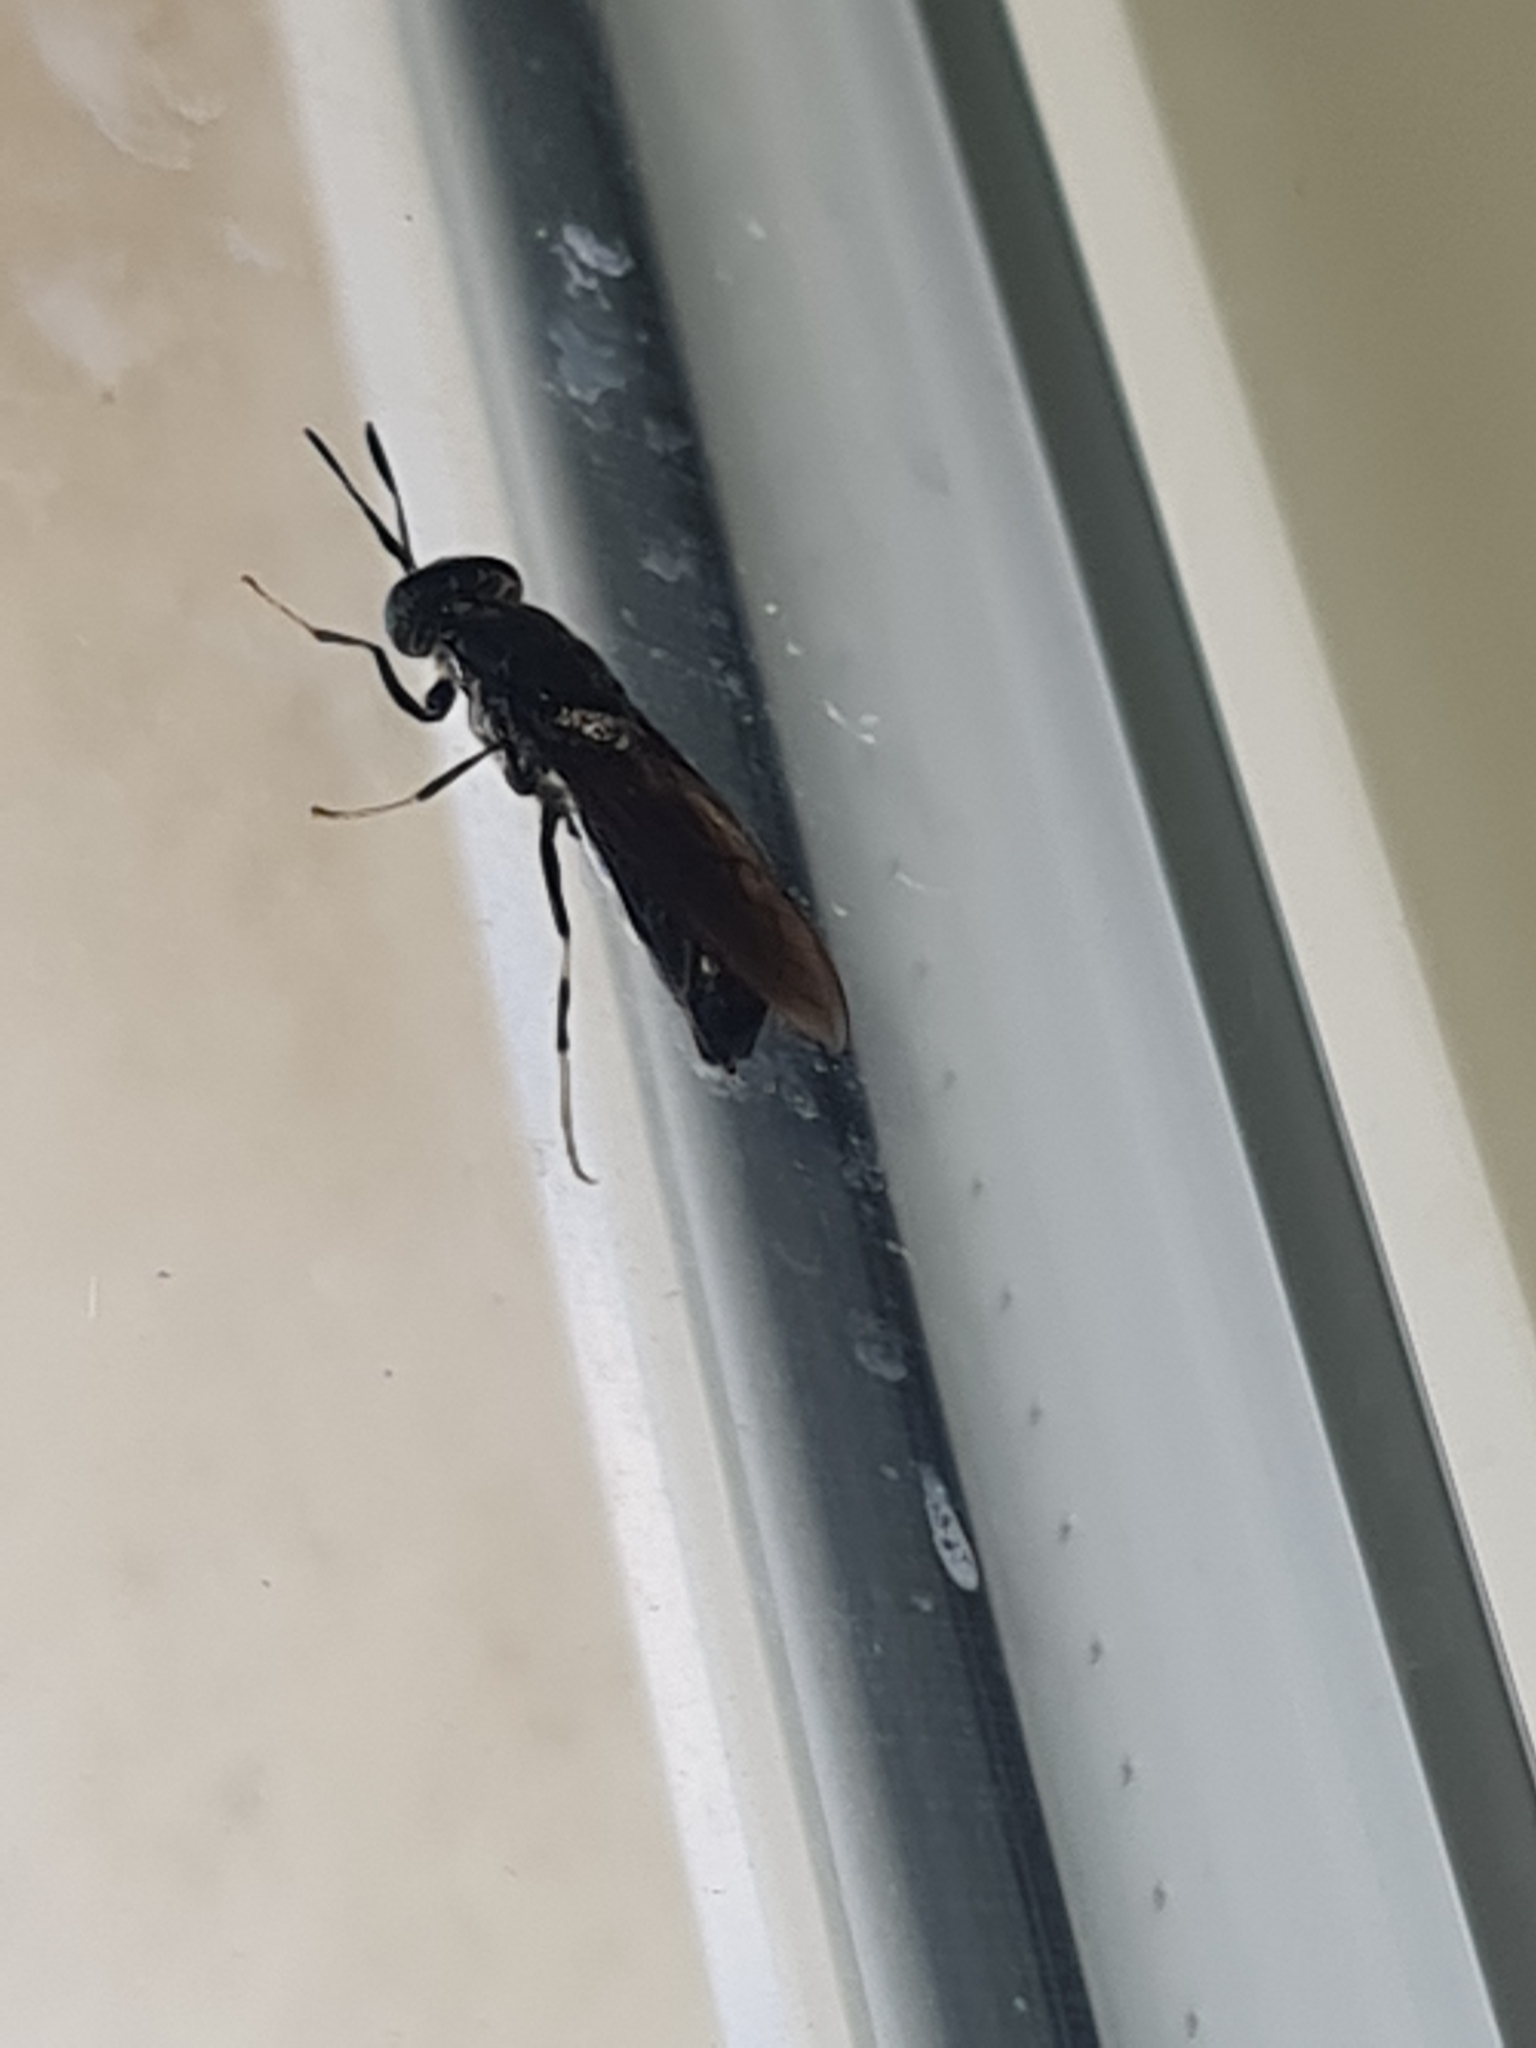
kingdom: Animalia
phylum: Arthropoda
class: Insecta
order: Diptera
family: Stratiomyidae
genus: Hermetia
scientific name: Hermetia illucens
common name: Black soldier fly
